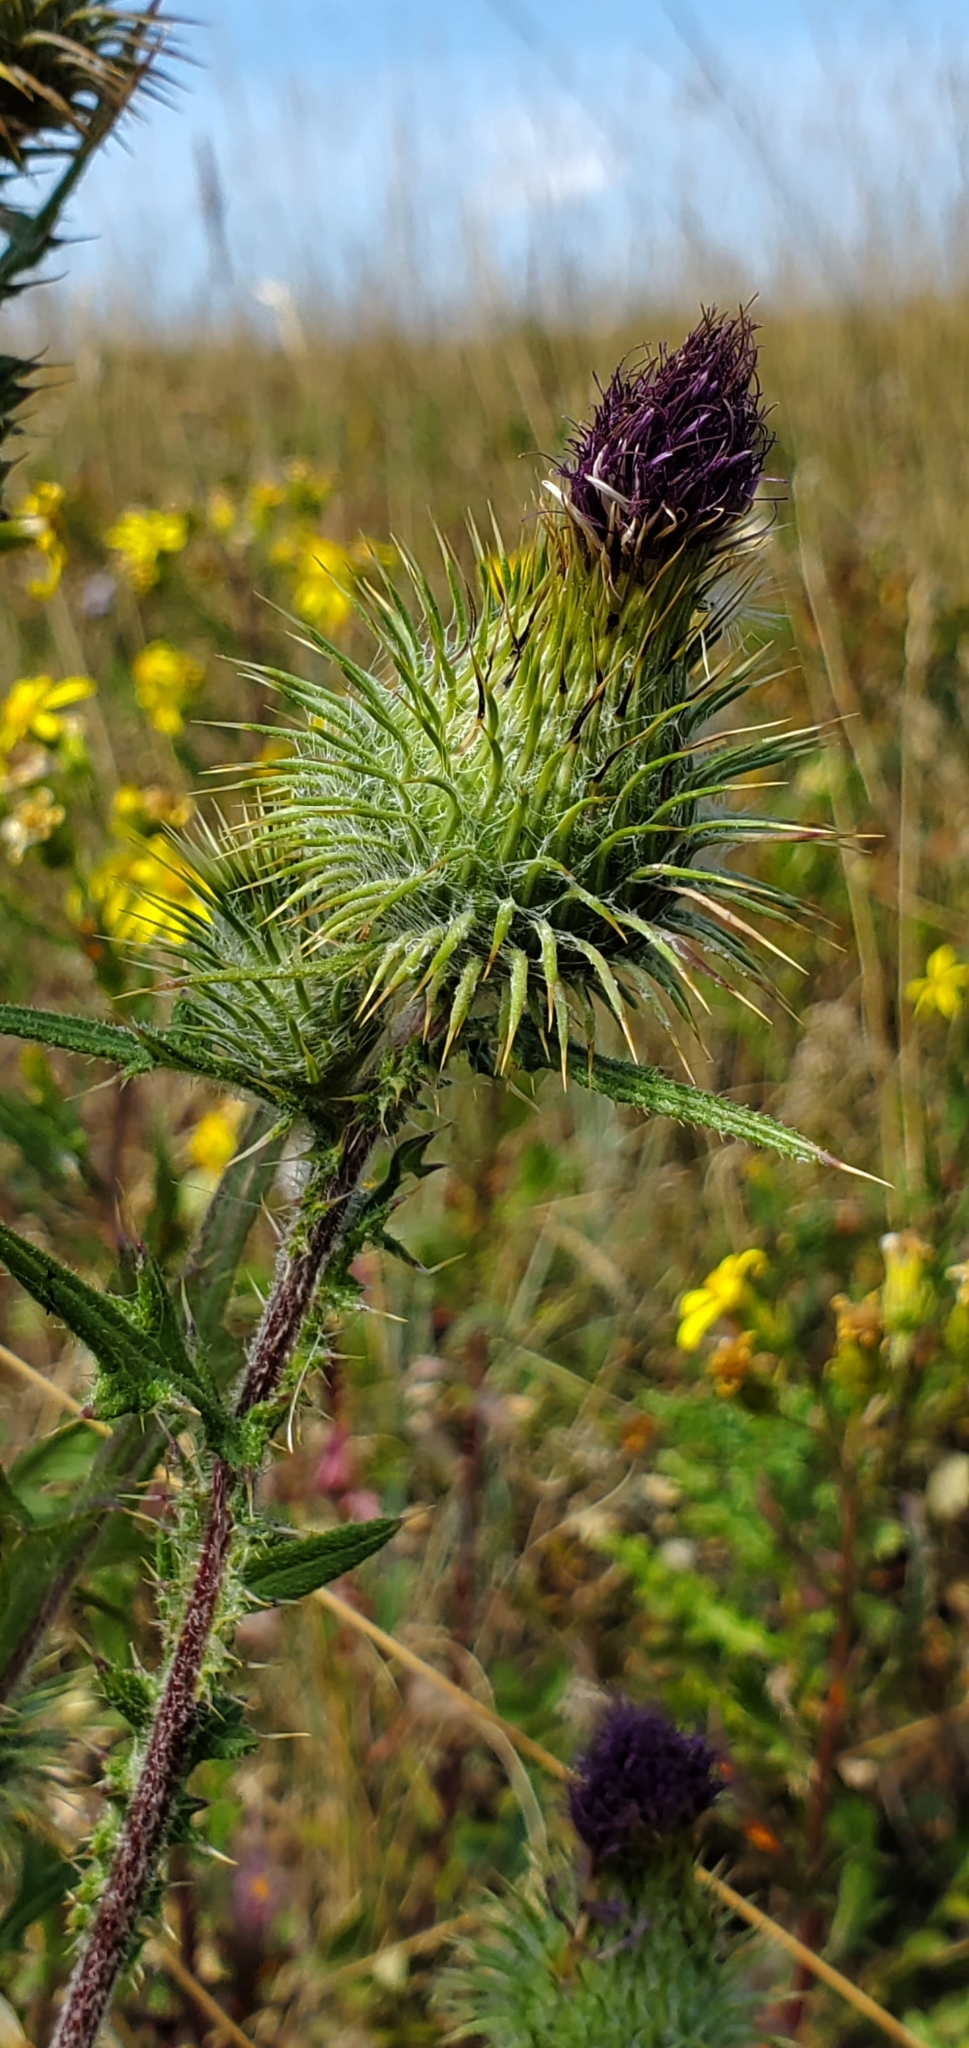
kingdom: Plantae
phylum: Tracheophyta
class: Magnoliopsida
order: Asterales
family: Asteraceae
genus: Cirsium
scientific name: Cirsium vulgare
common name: Bull thistle
